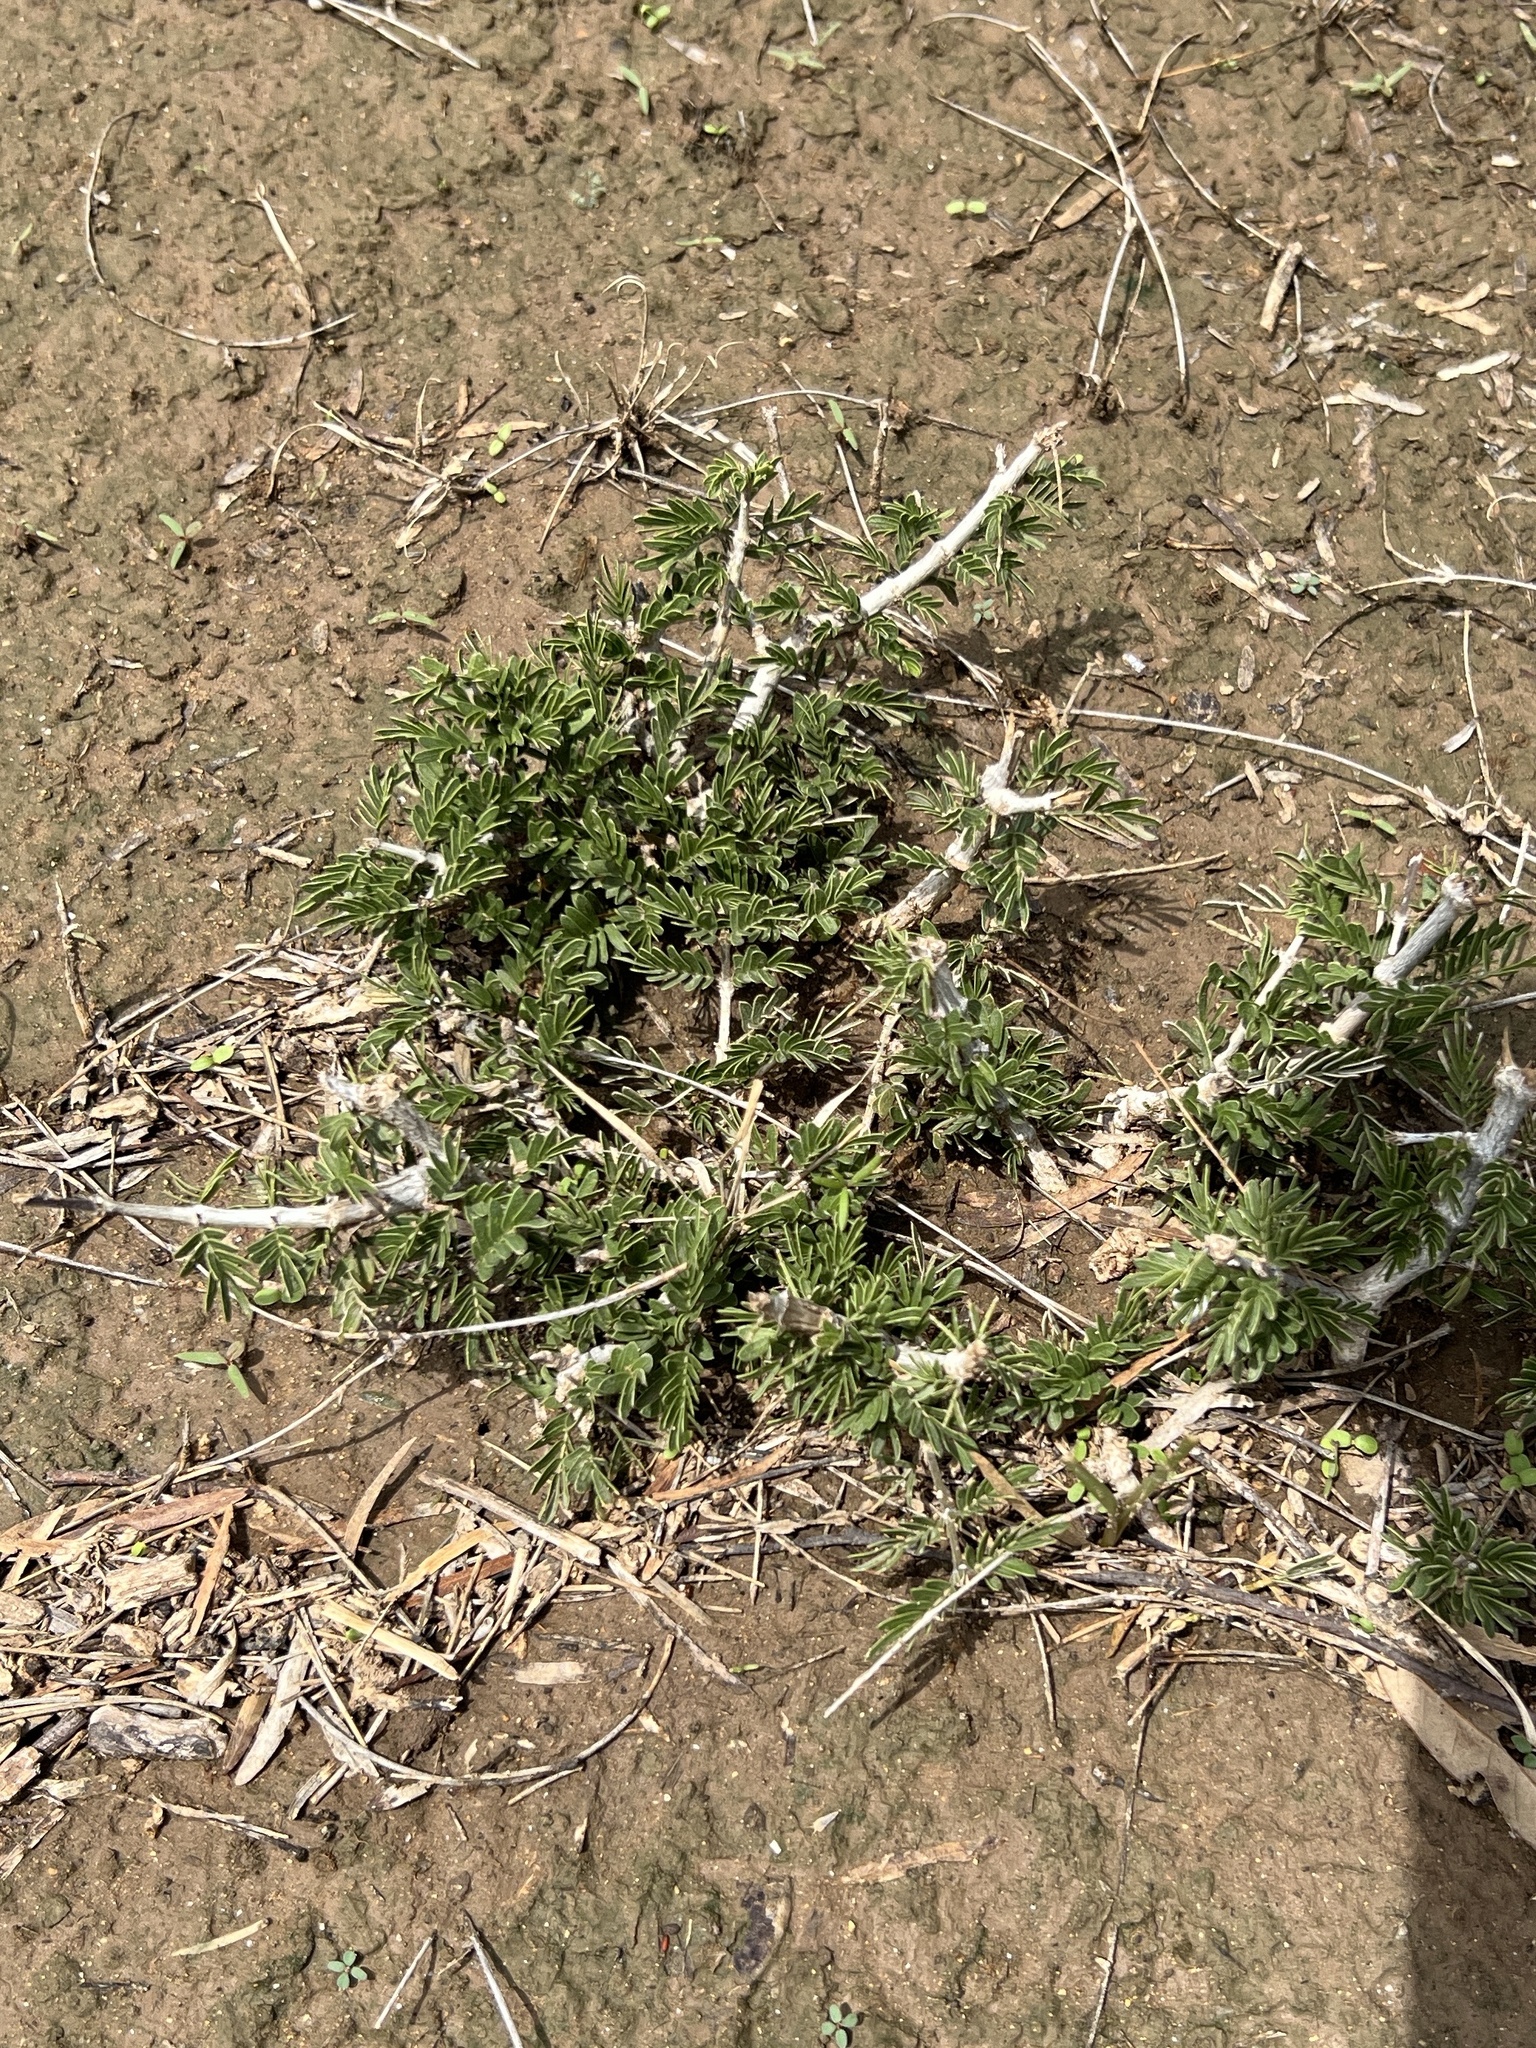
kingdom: Plantae
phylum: Tracheophyta
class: Magnoliopsida
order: Zygophyllales
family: Zygophyllaceae
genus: Porlieria
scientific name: Porlieria angustifolia
